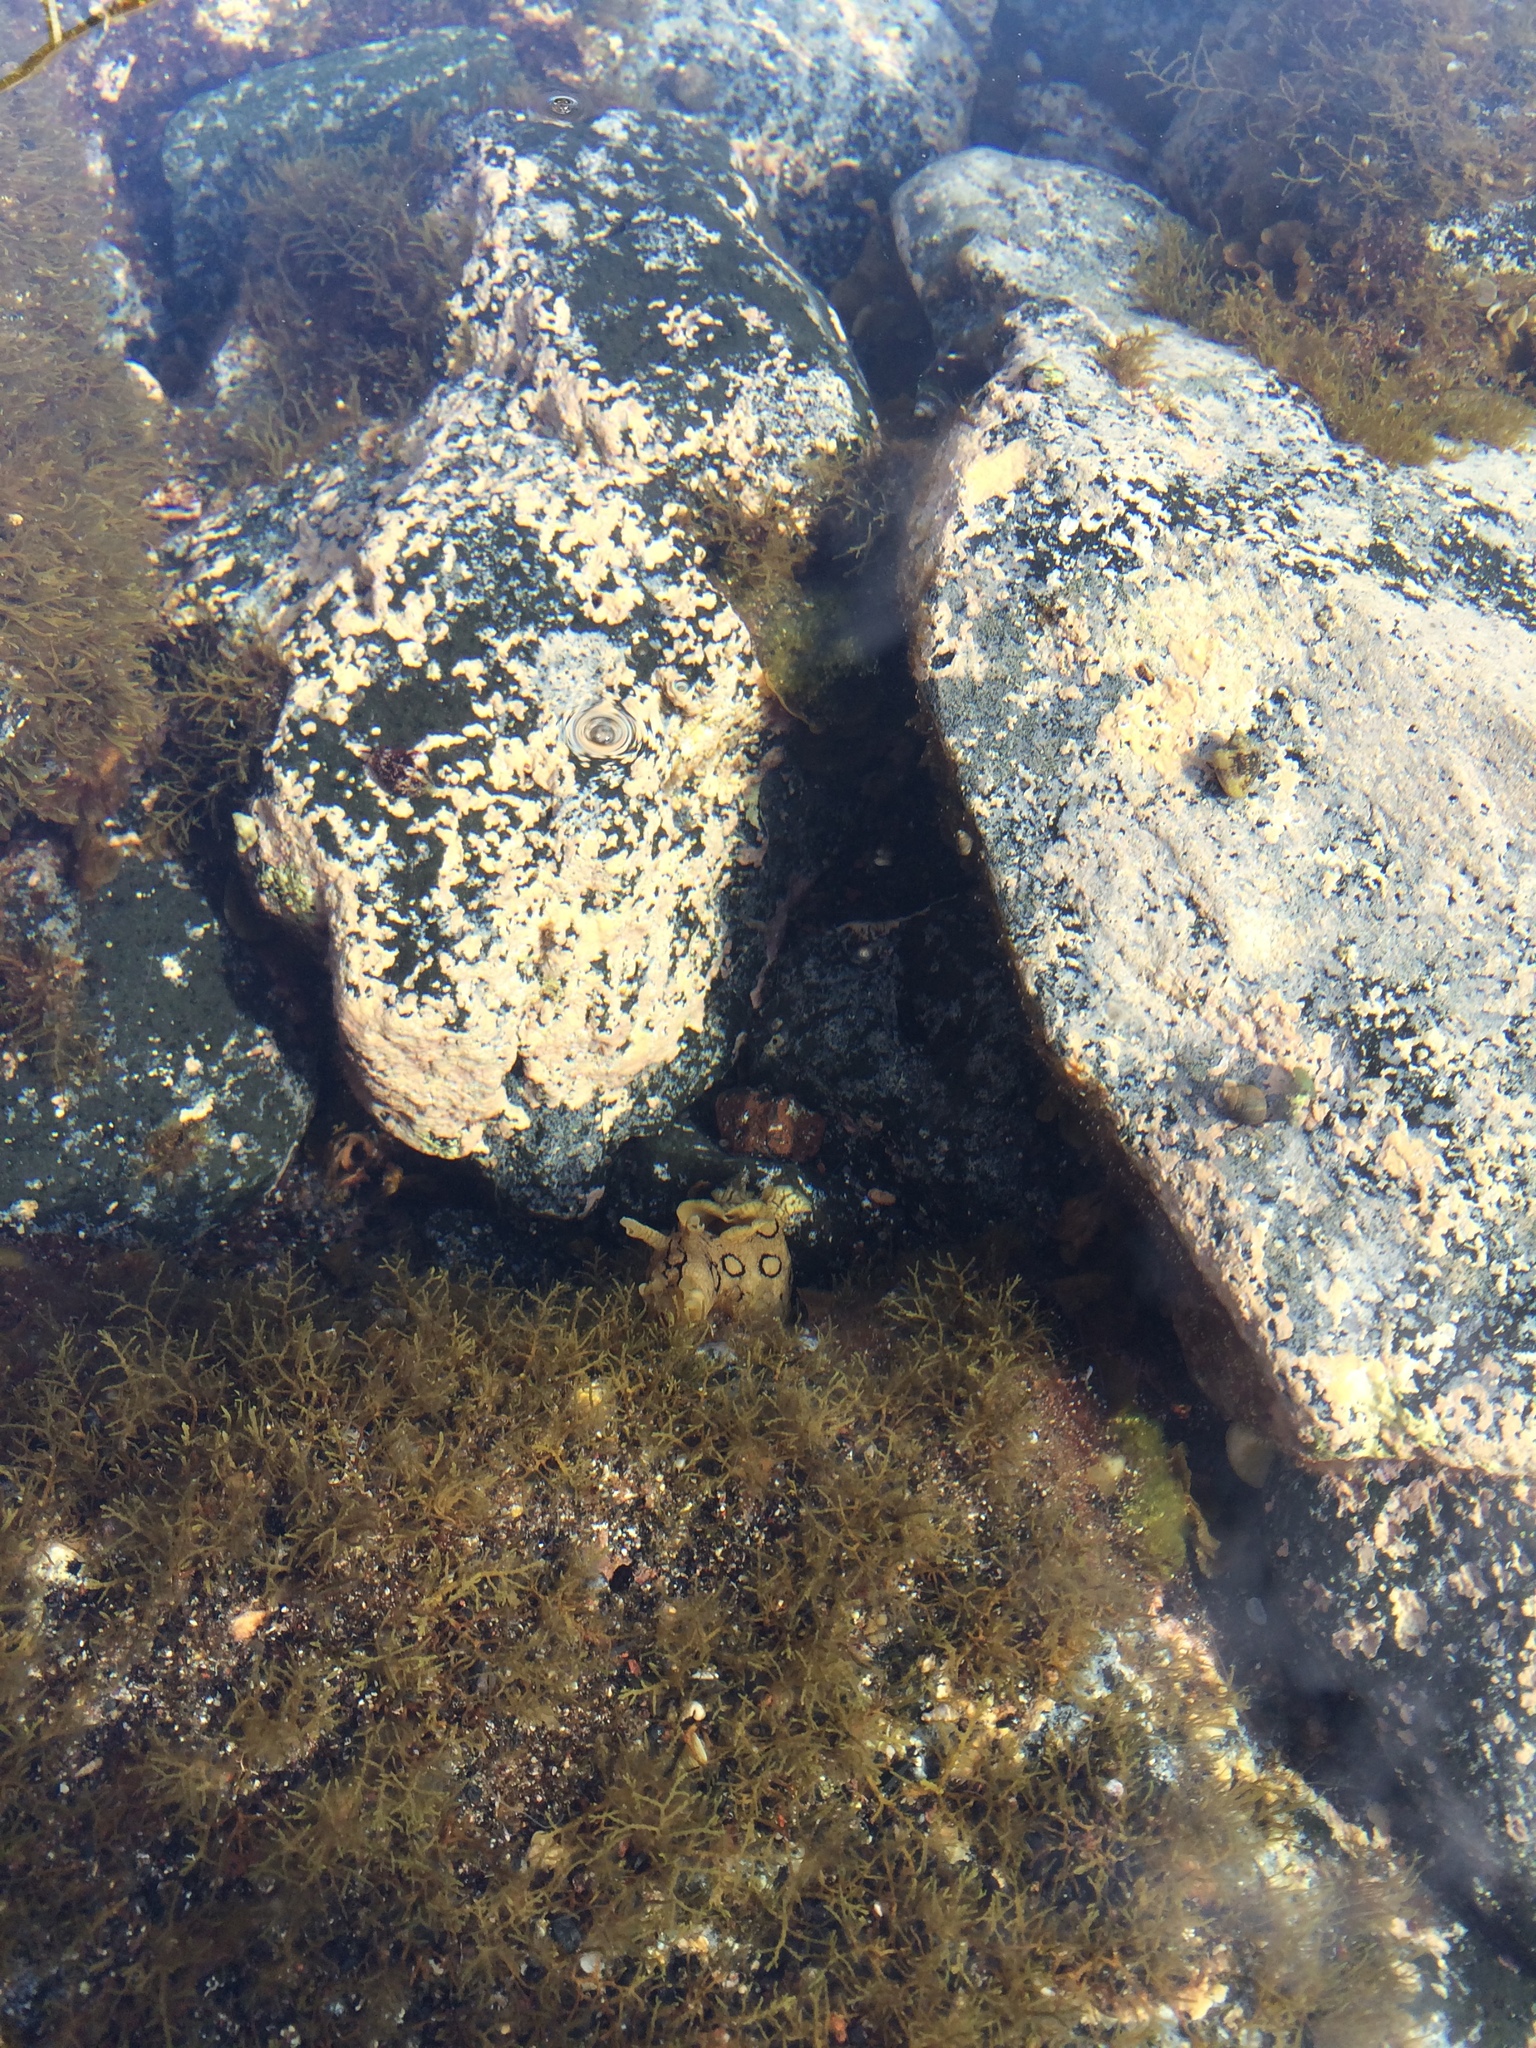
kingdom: Animalia
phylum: Mollusca
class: Gastropoda
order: Aplysiida
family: Aplysiidae
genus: Aplysia
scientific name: Aplysia dactylomela
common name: Large-spotted sea hare
